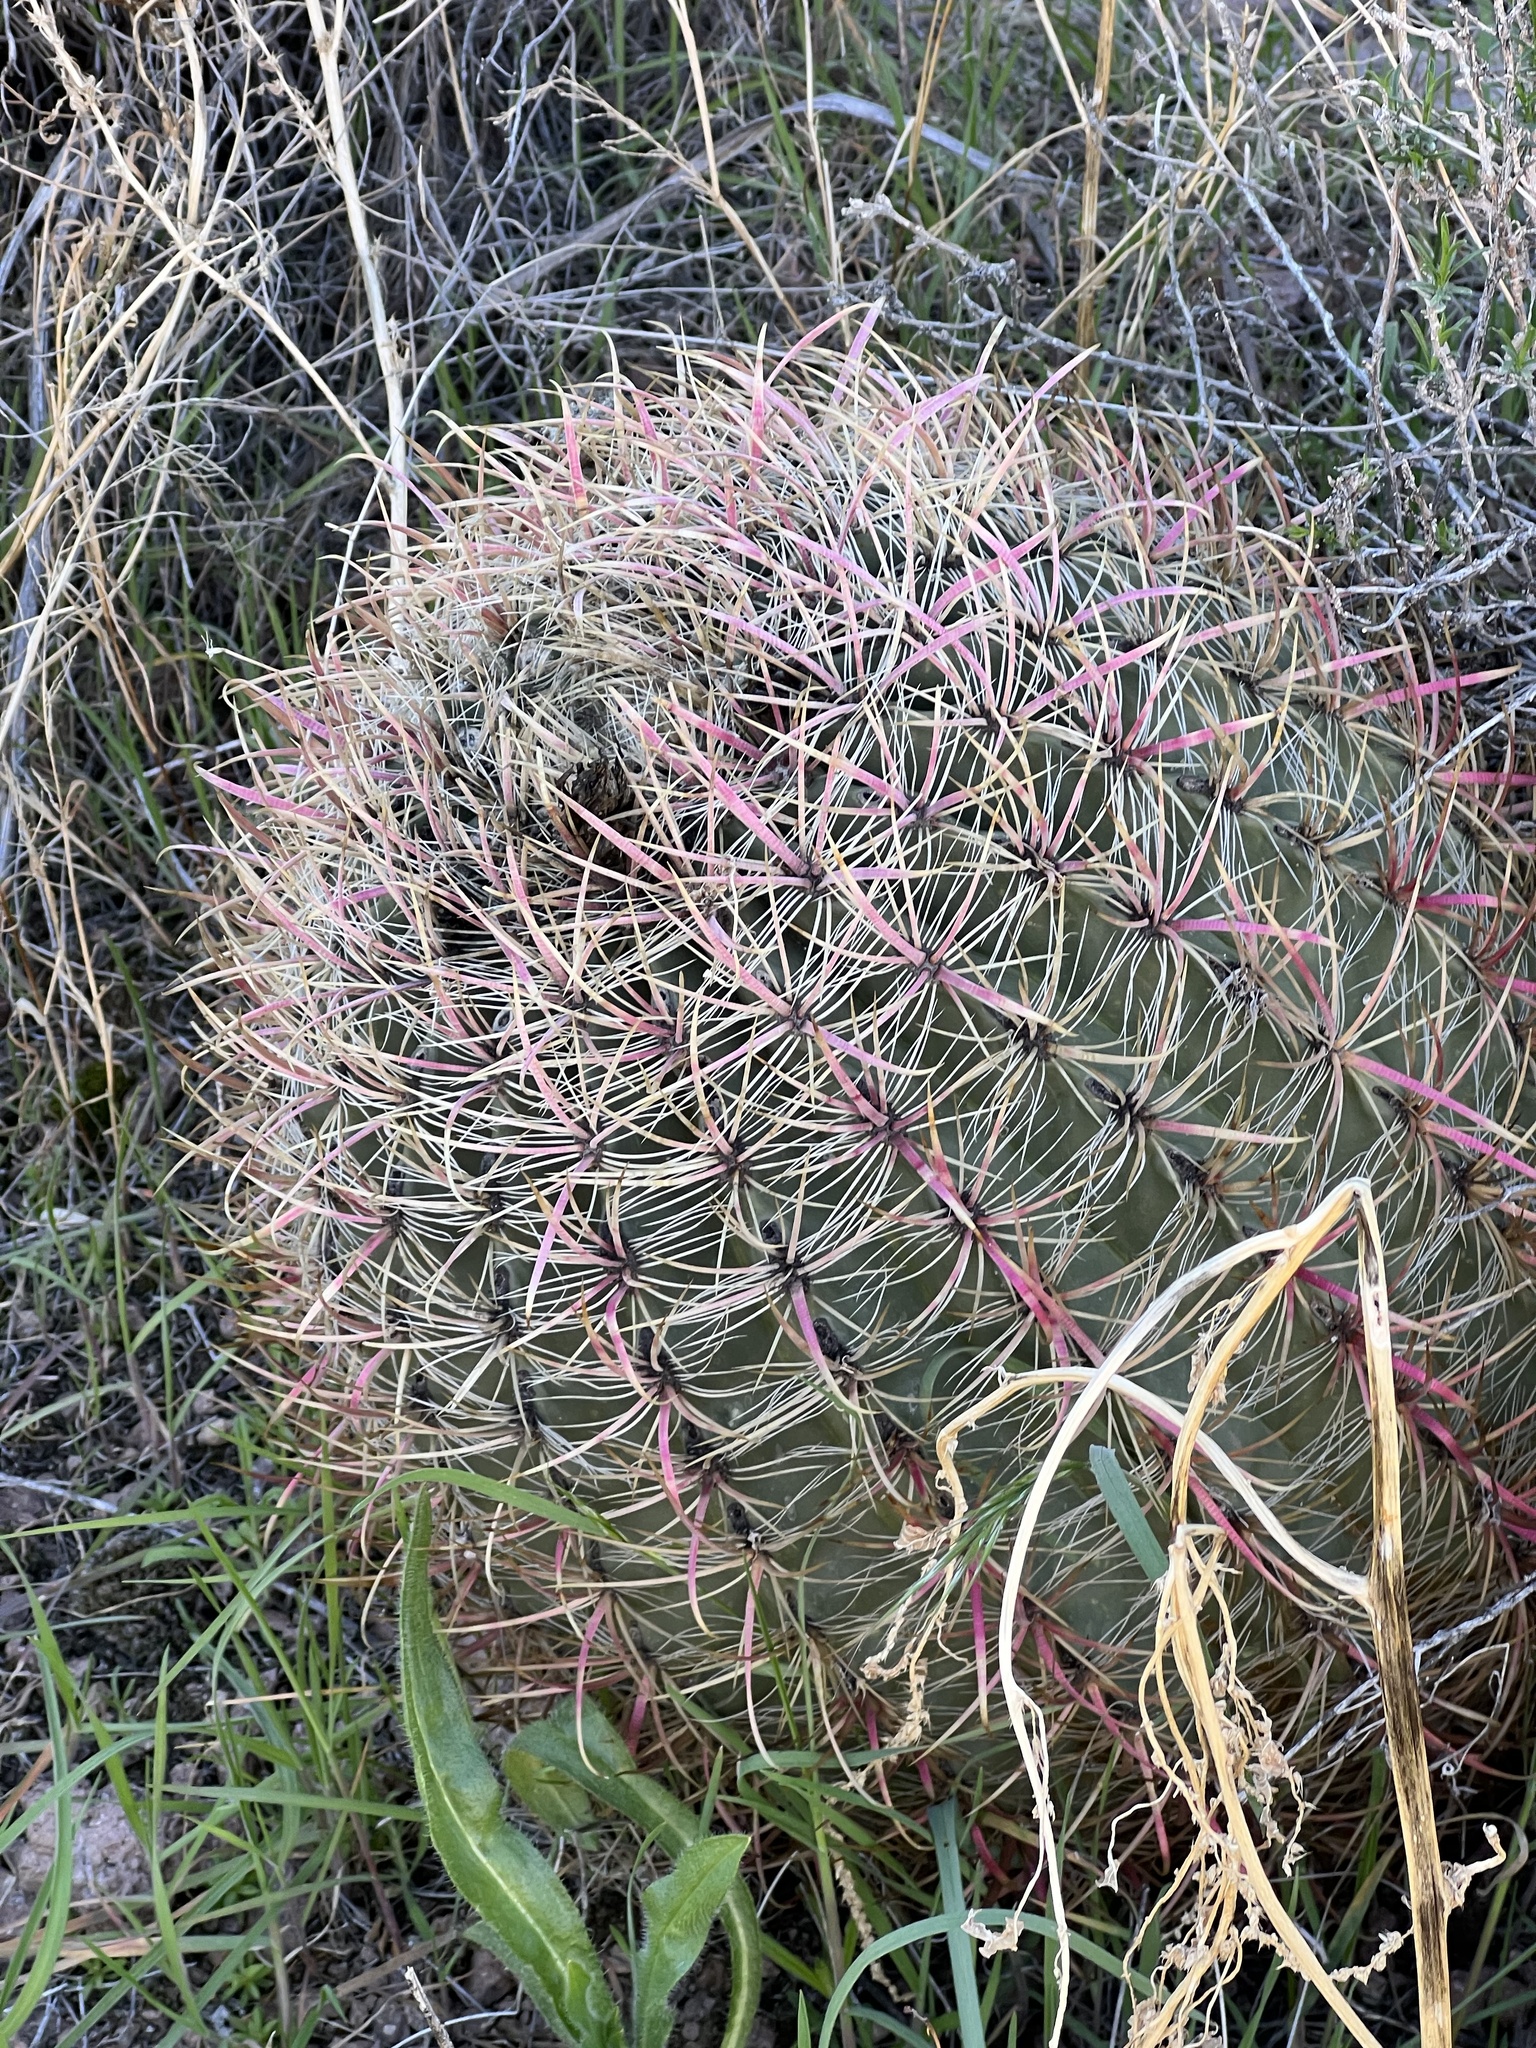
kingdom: Plantae
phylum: Tracheophyta
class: Magnoliopsida
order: Caryophyllales
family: Cactaceae
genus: Ferocactus
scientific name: Ferocactus cylindraceus
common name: California barrel cactus
